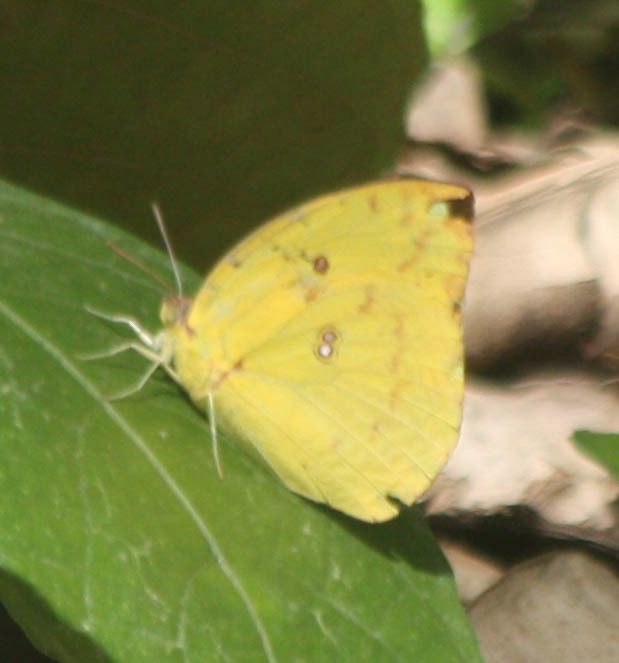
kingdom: Animalia
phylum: Arthropoda
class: Insecta
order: Lepidoptera
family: Pieridae
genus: Catopsilia
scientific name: Catopsilia pomona
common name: Common emigrant
